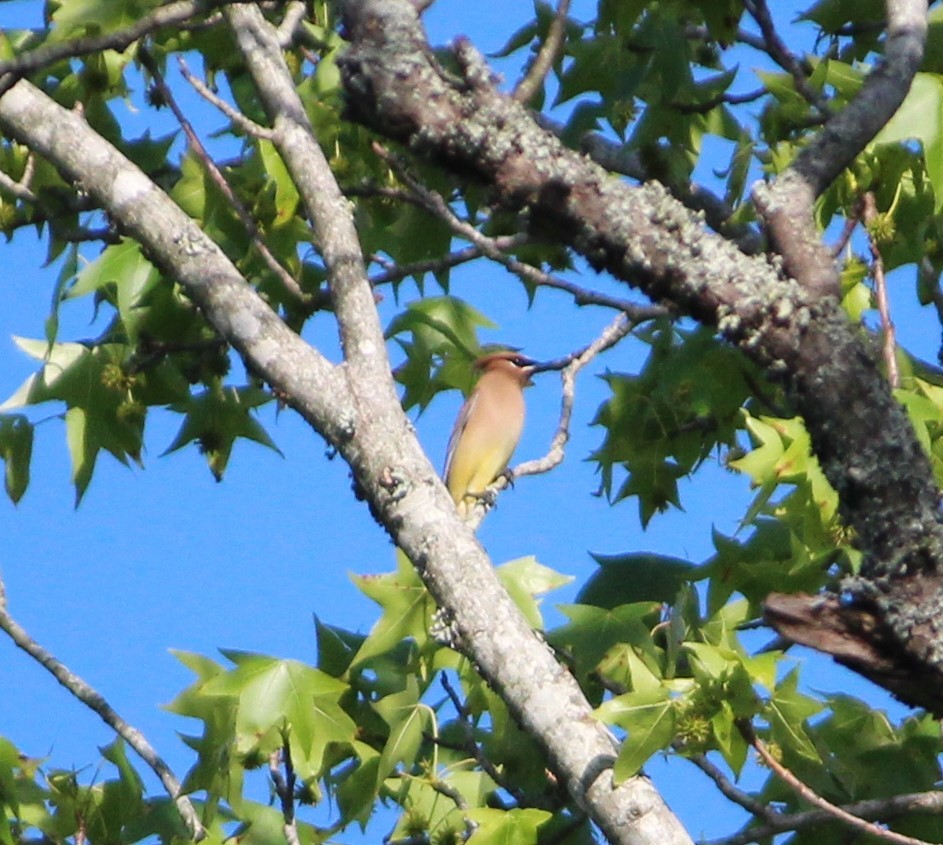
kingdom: Animalia
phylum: Chordata
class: Aves
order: Passeriformes
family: Bombycillidae
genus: Bombycilla
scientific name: Bombycilla cedrorum
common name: Cedar waxwing
